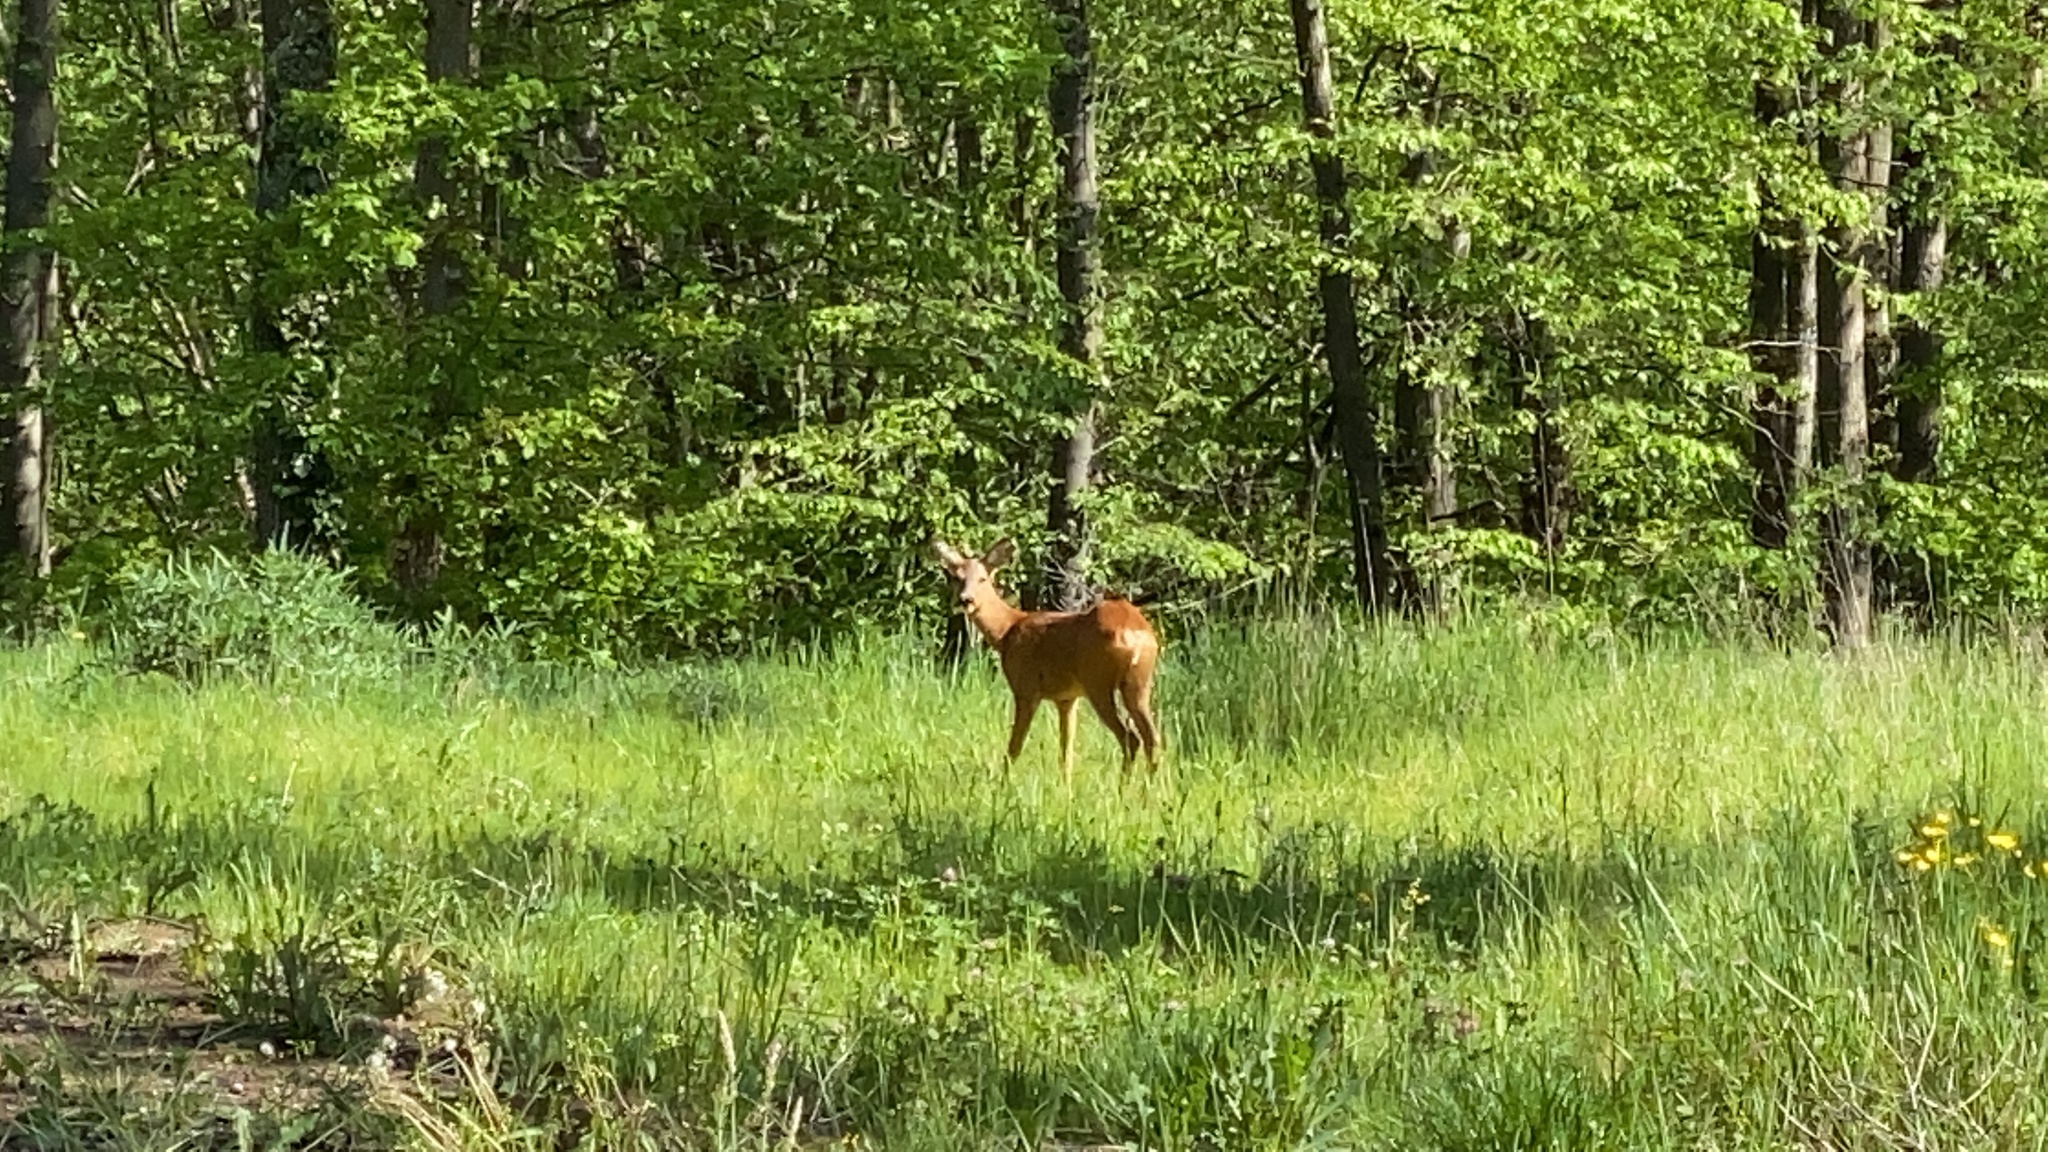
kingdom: Animalia
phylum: Chordata
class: Mammalia
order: Artiodactyla
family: Cervidae
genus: Capreolus
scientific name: Capreolus capreolus
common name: Western roe deer
